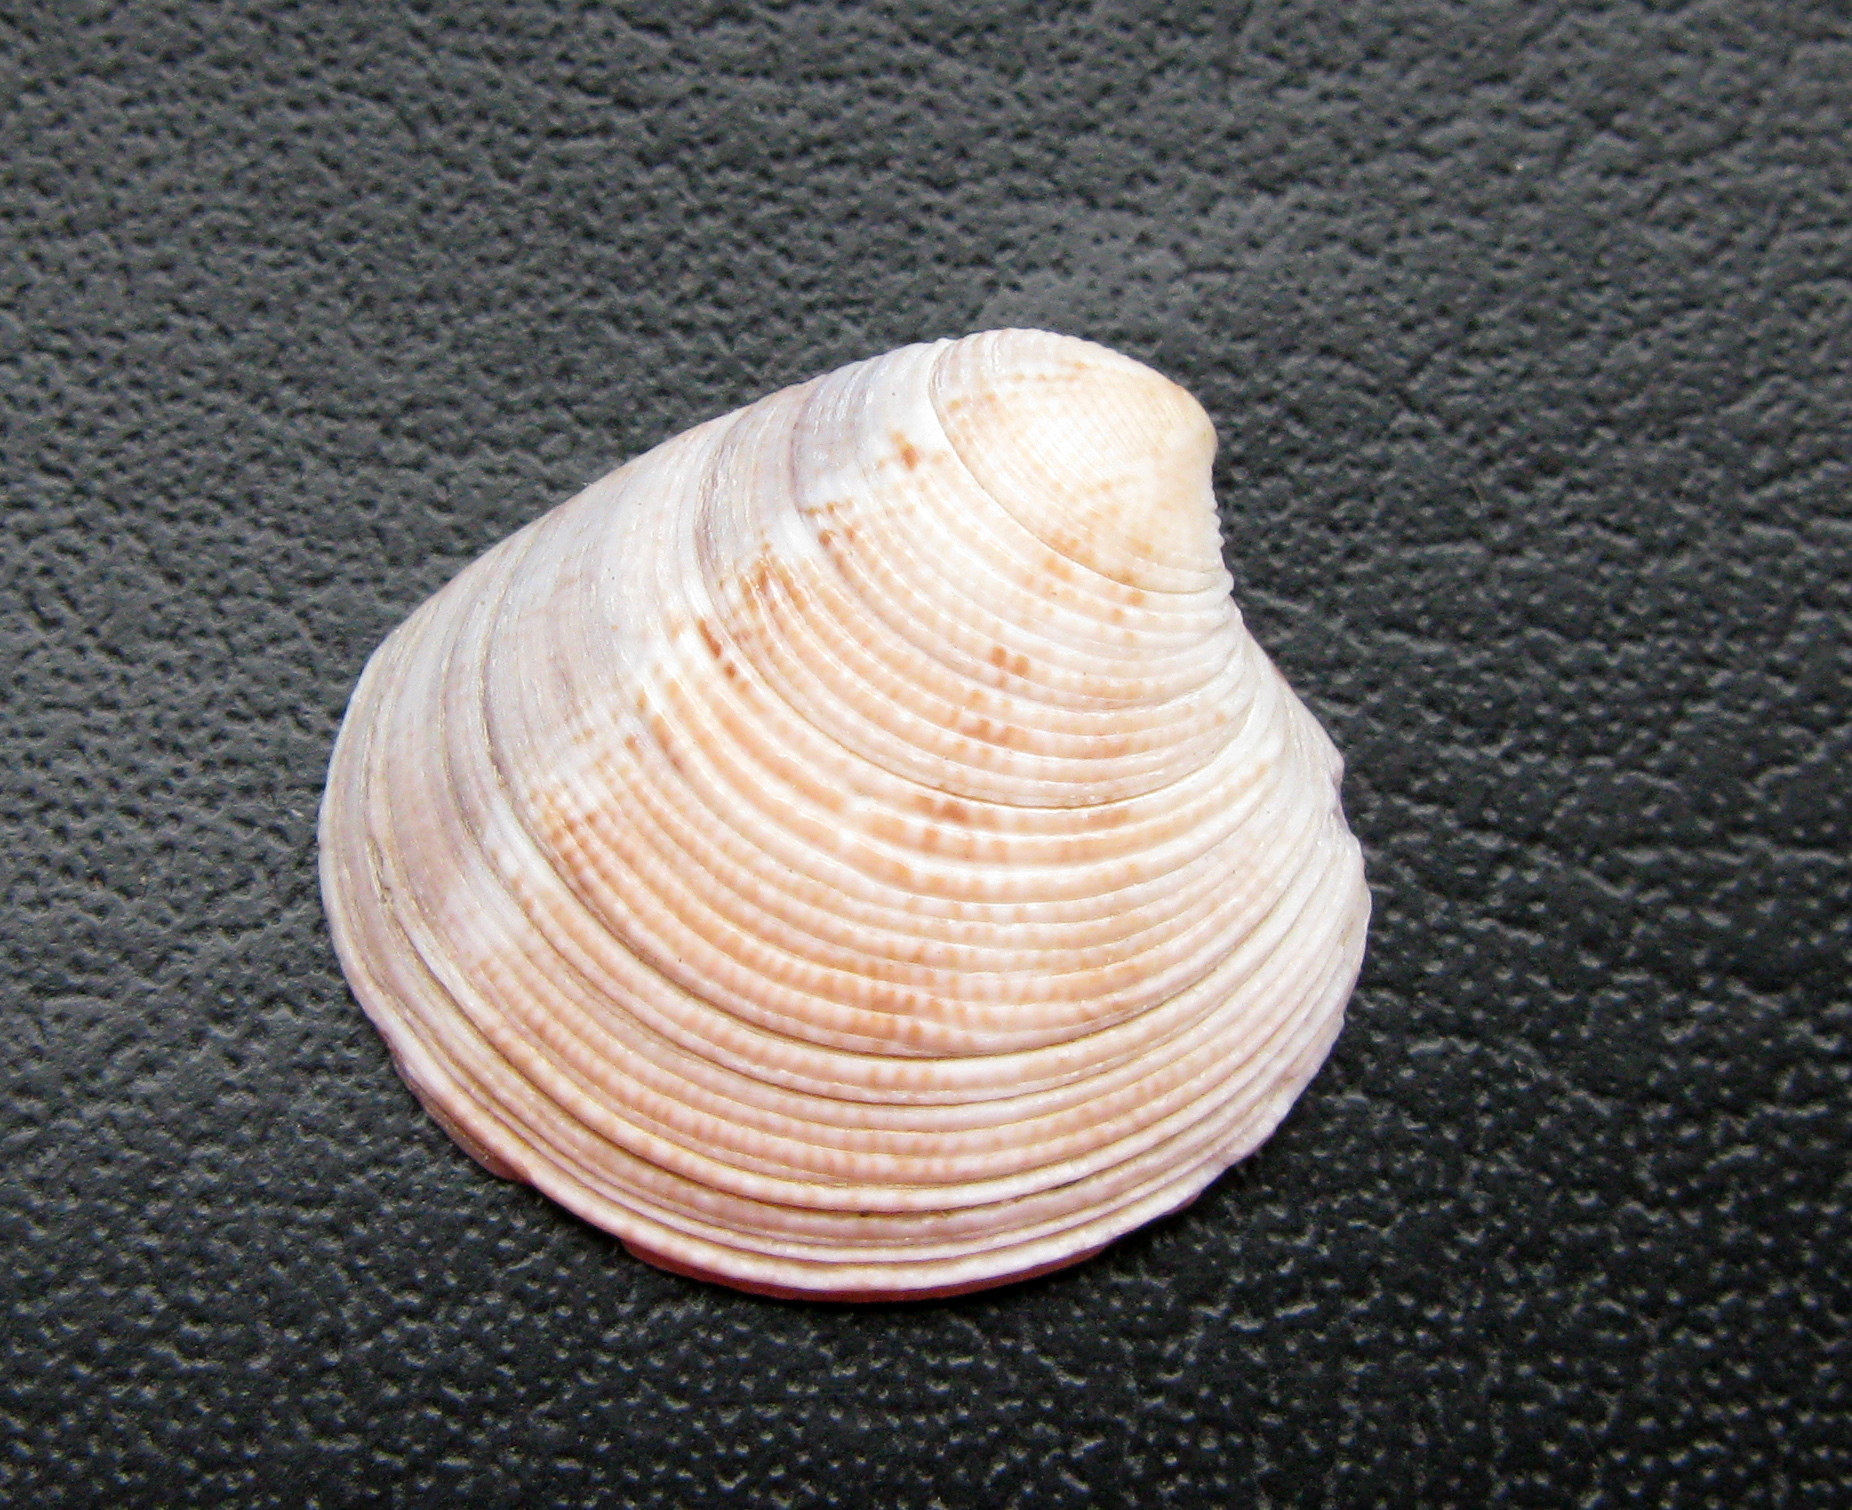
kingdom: Animalia
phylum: Mollusca
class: Bivalvia
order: Venerida
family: Veneridae
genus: Chamelea
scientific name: Chamelea gallina
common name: Chicken venus
